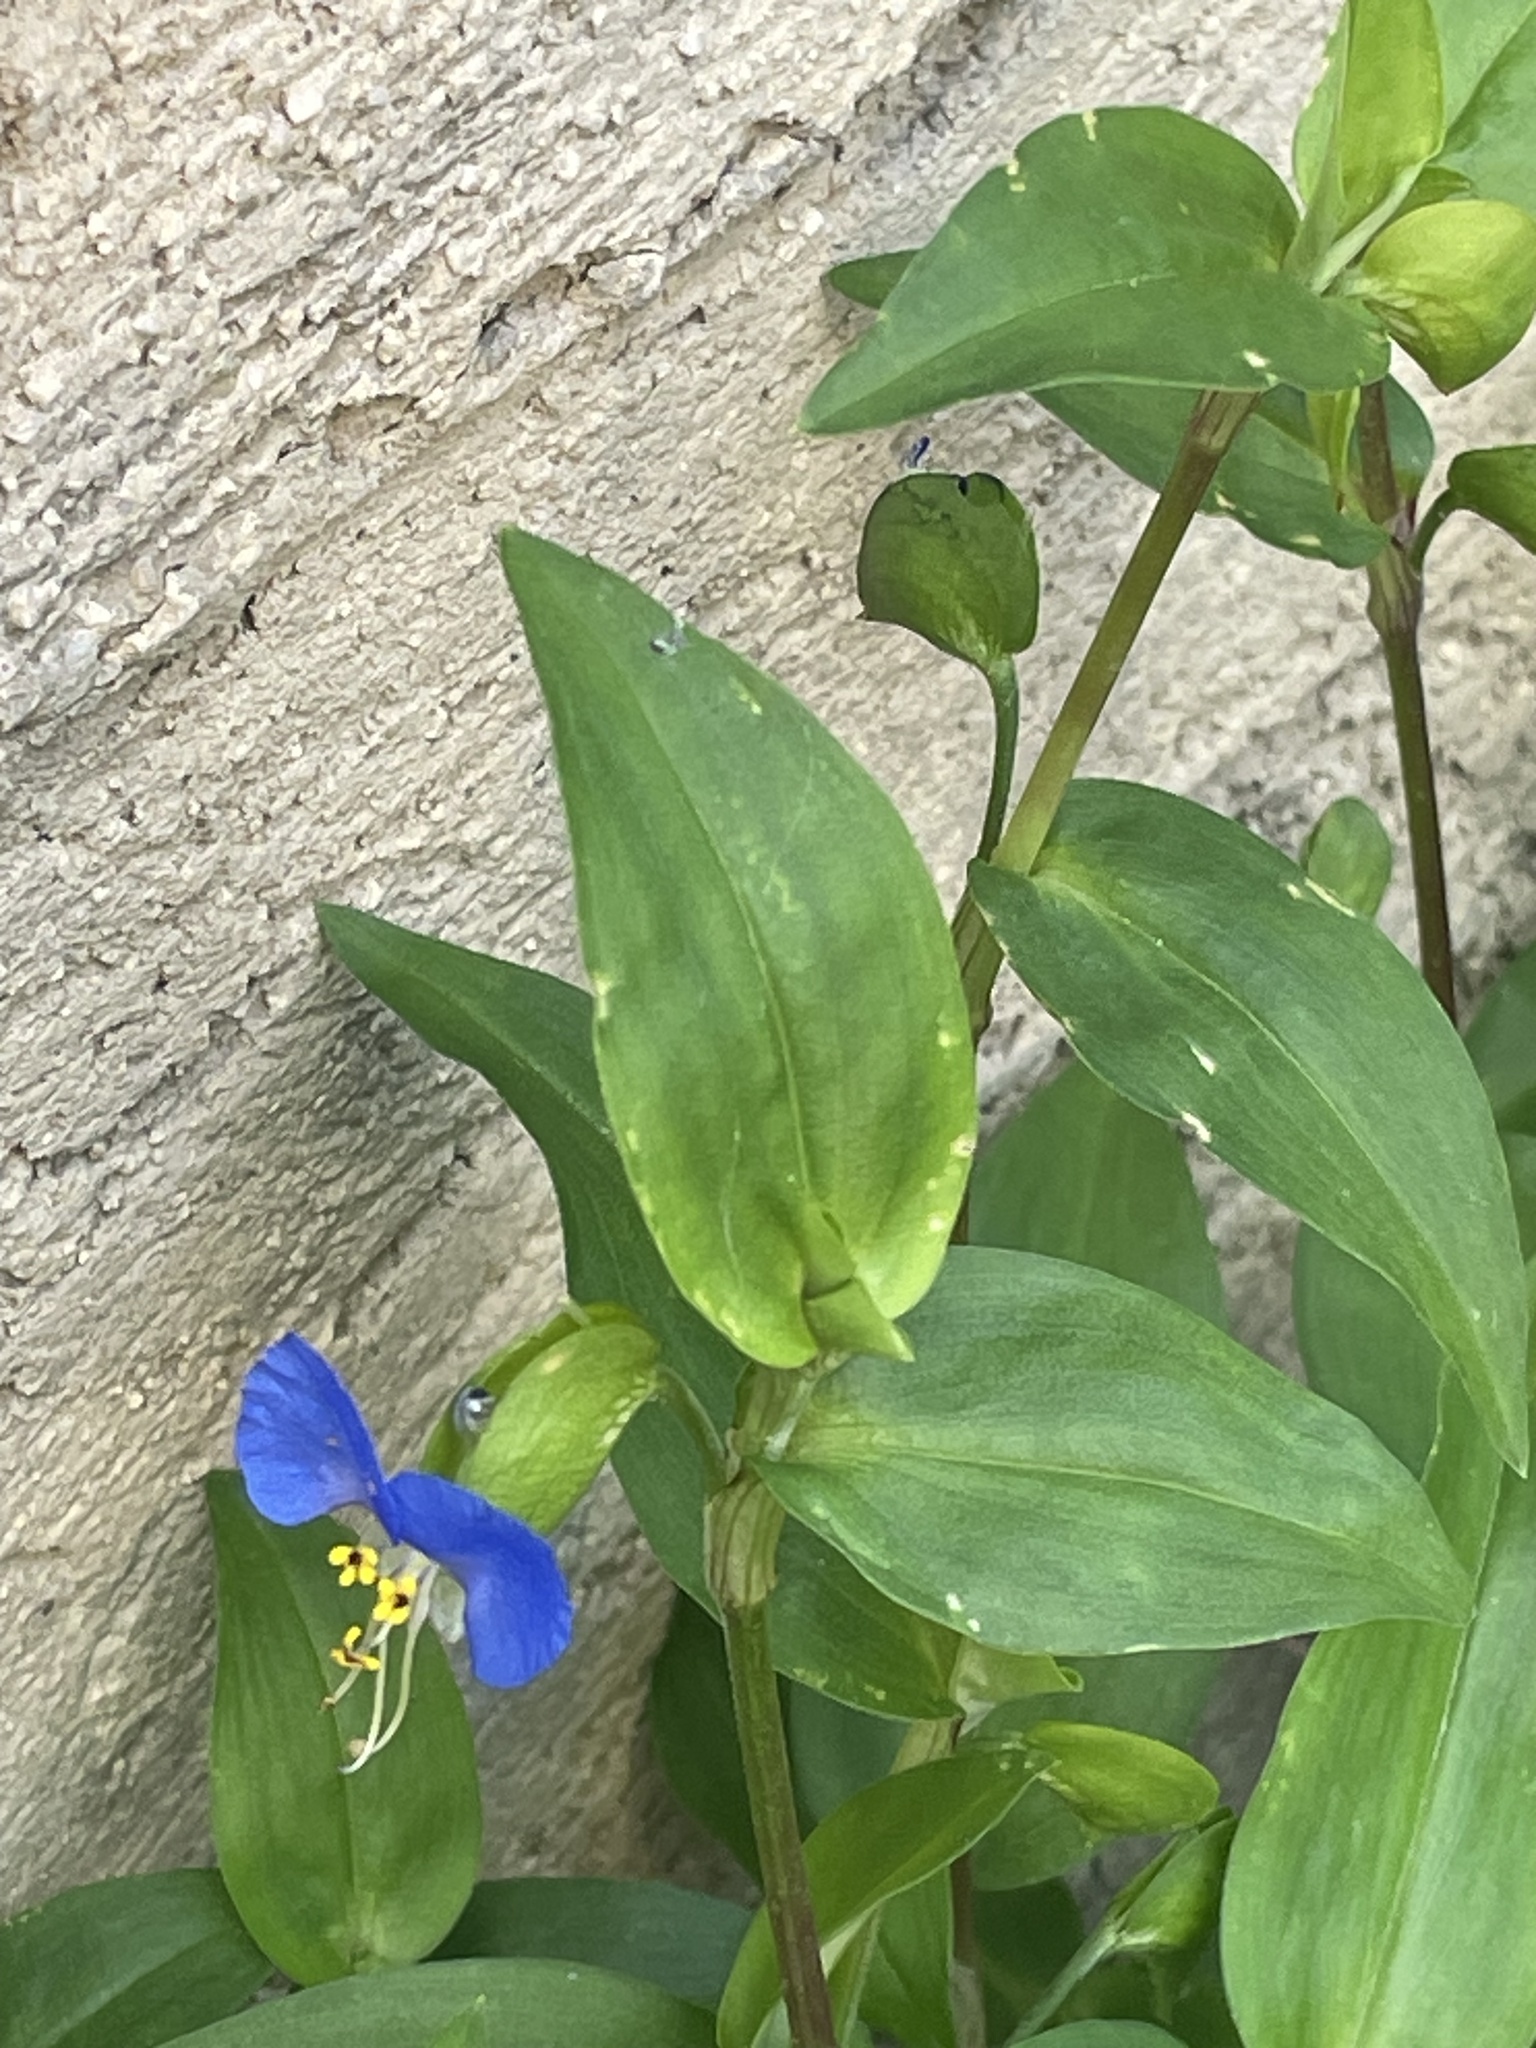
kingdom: Plantae
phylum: Tracheophyta
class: Liliopsida
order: Commelinales
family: Commelinaceae
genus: Commelina
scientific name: Commelina communis
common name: Asiatic dayflower
